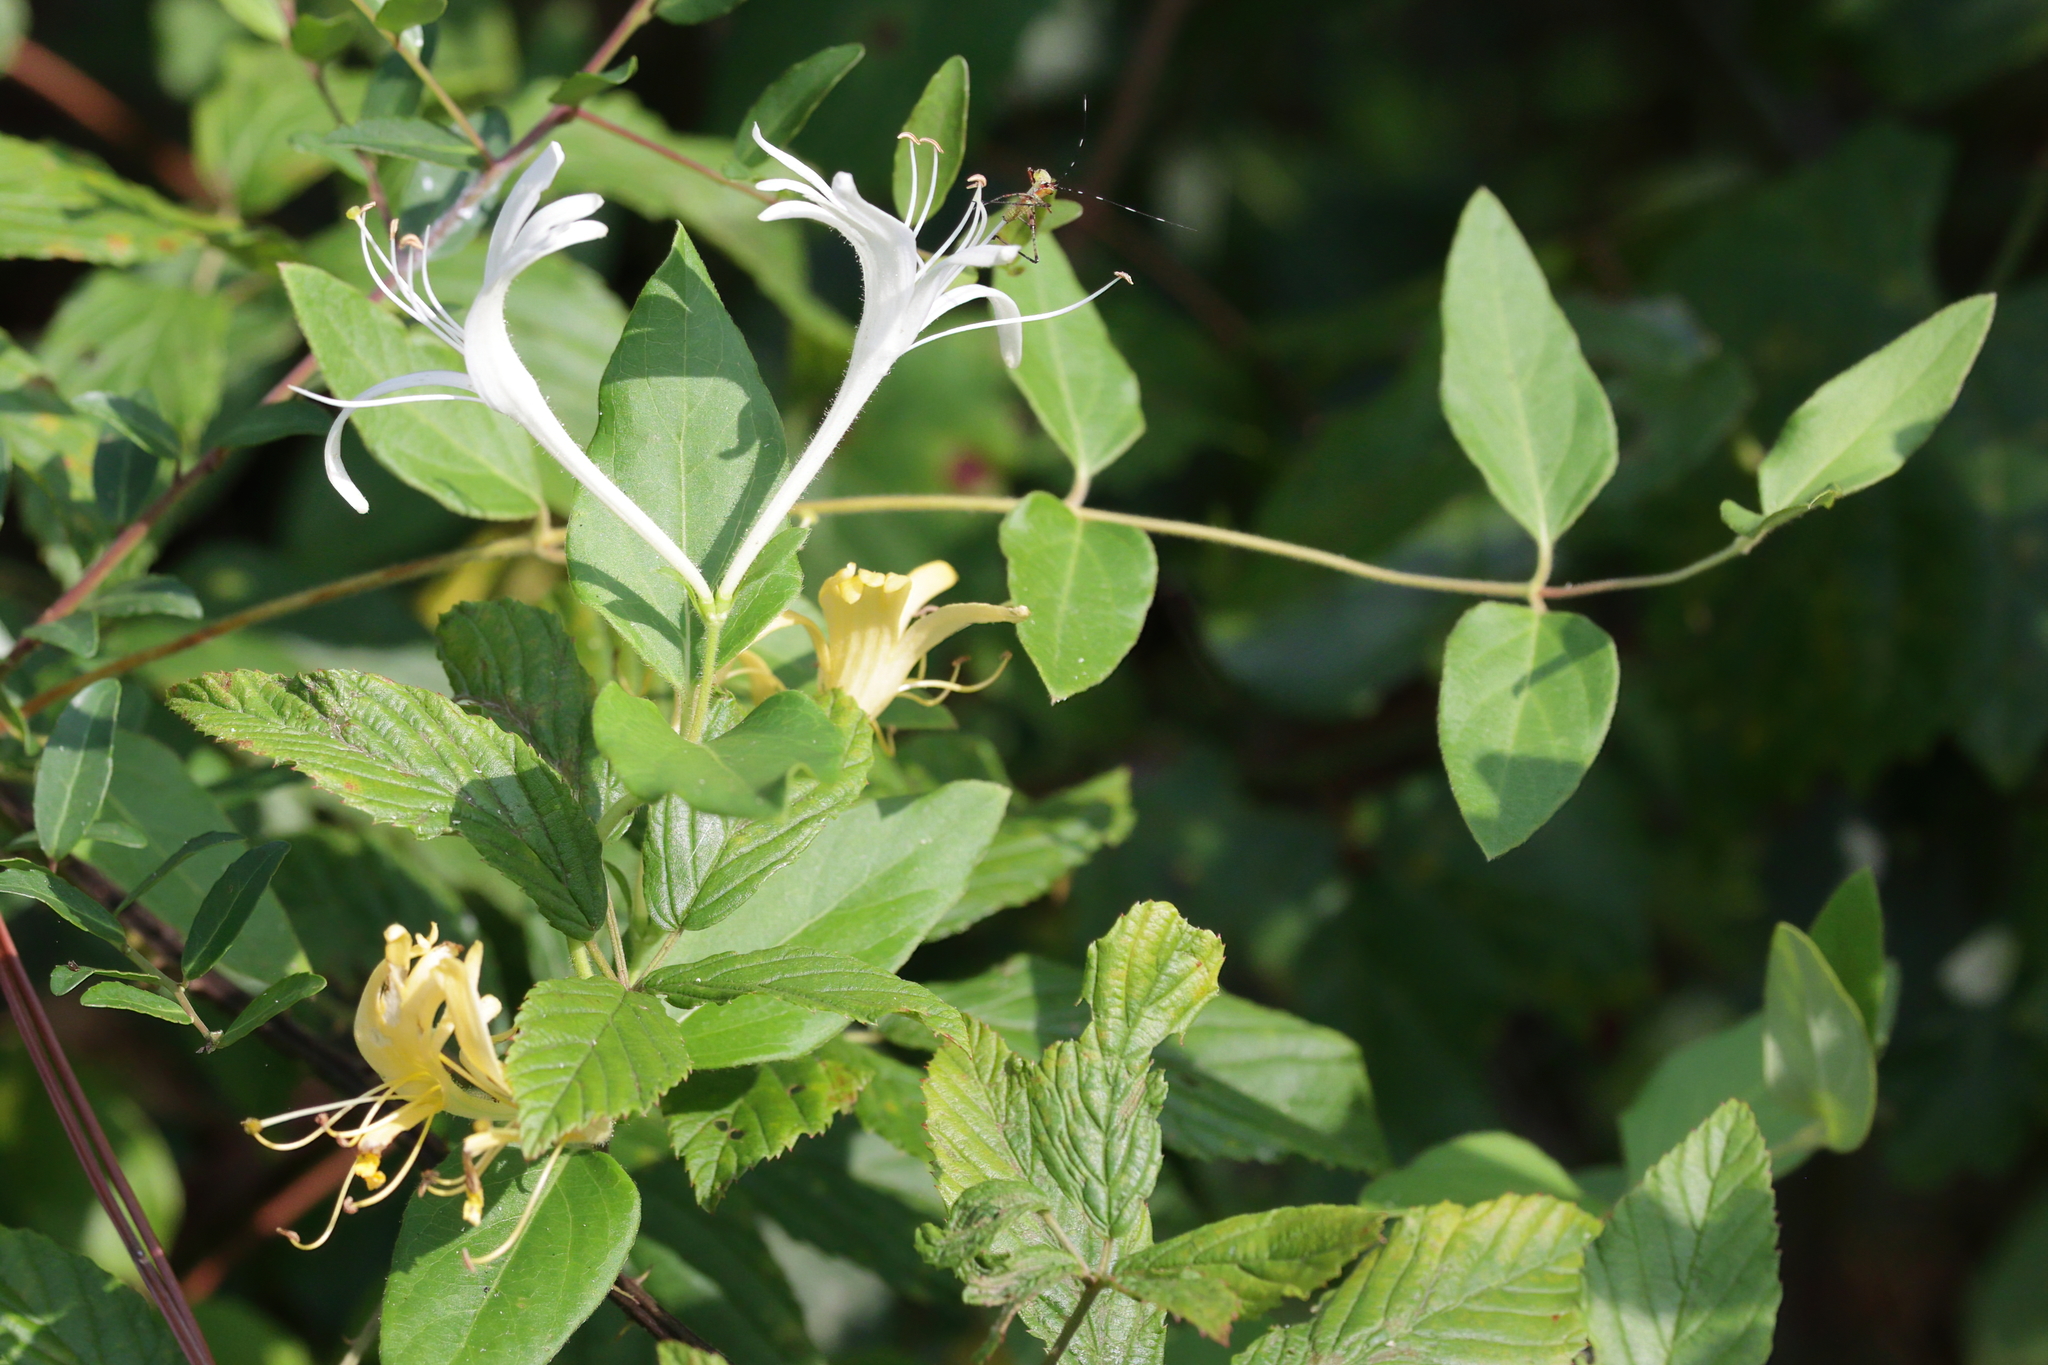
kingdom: Plantae
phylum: Tracheophyta
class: Magnoliopsida
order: Dipsacales
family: Caprifoliaceae
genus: Lonicera
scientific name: Lonicera japonica
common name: Japanese honeysuckle
